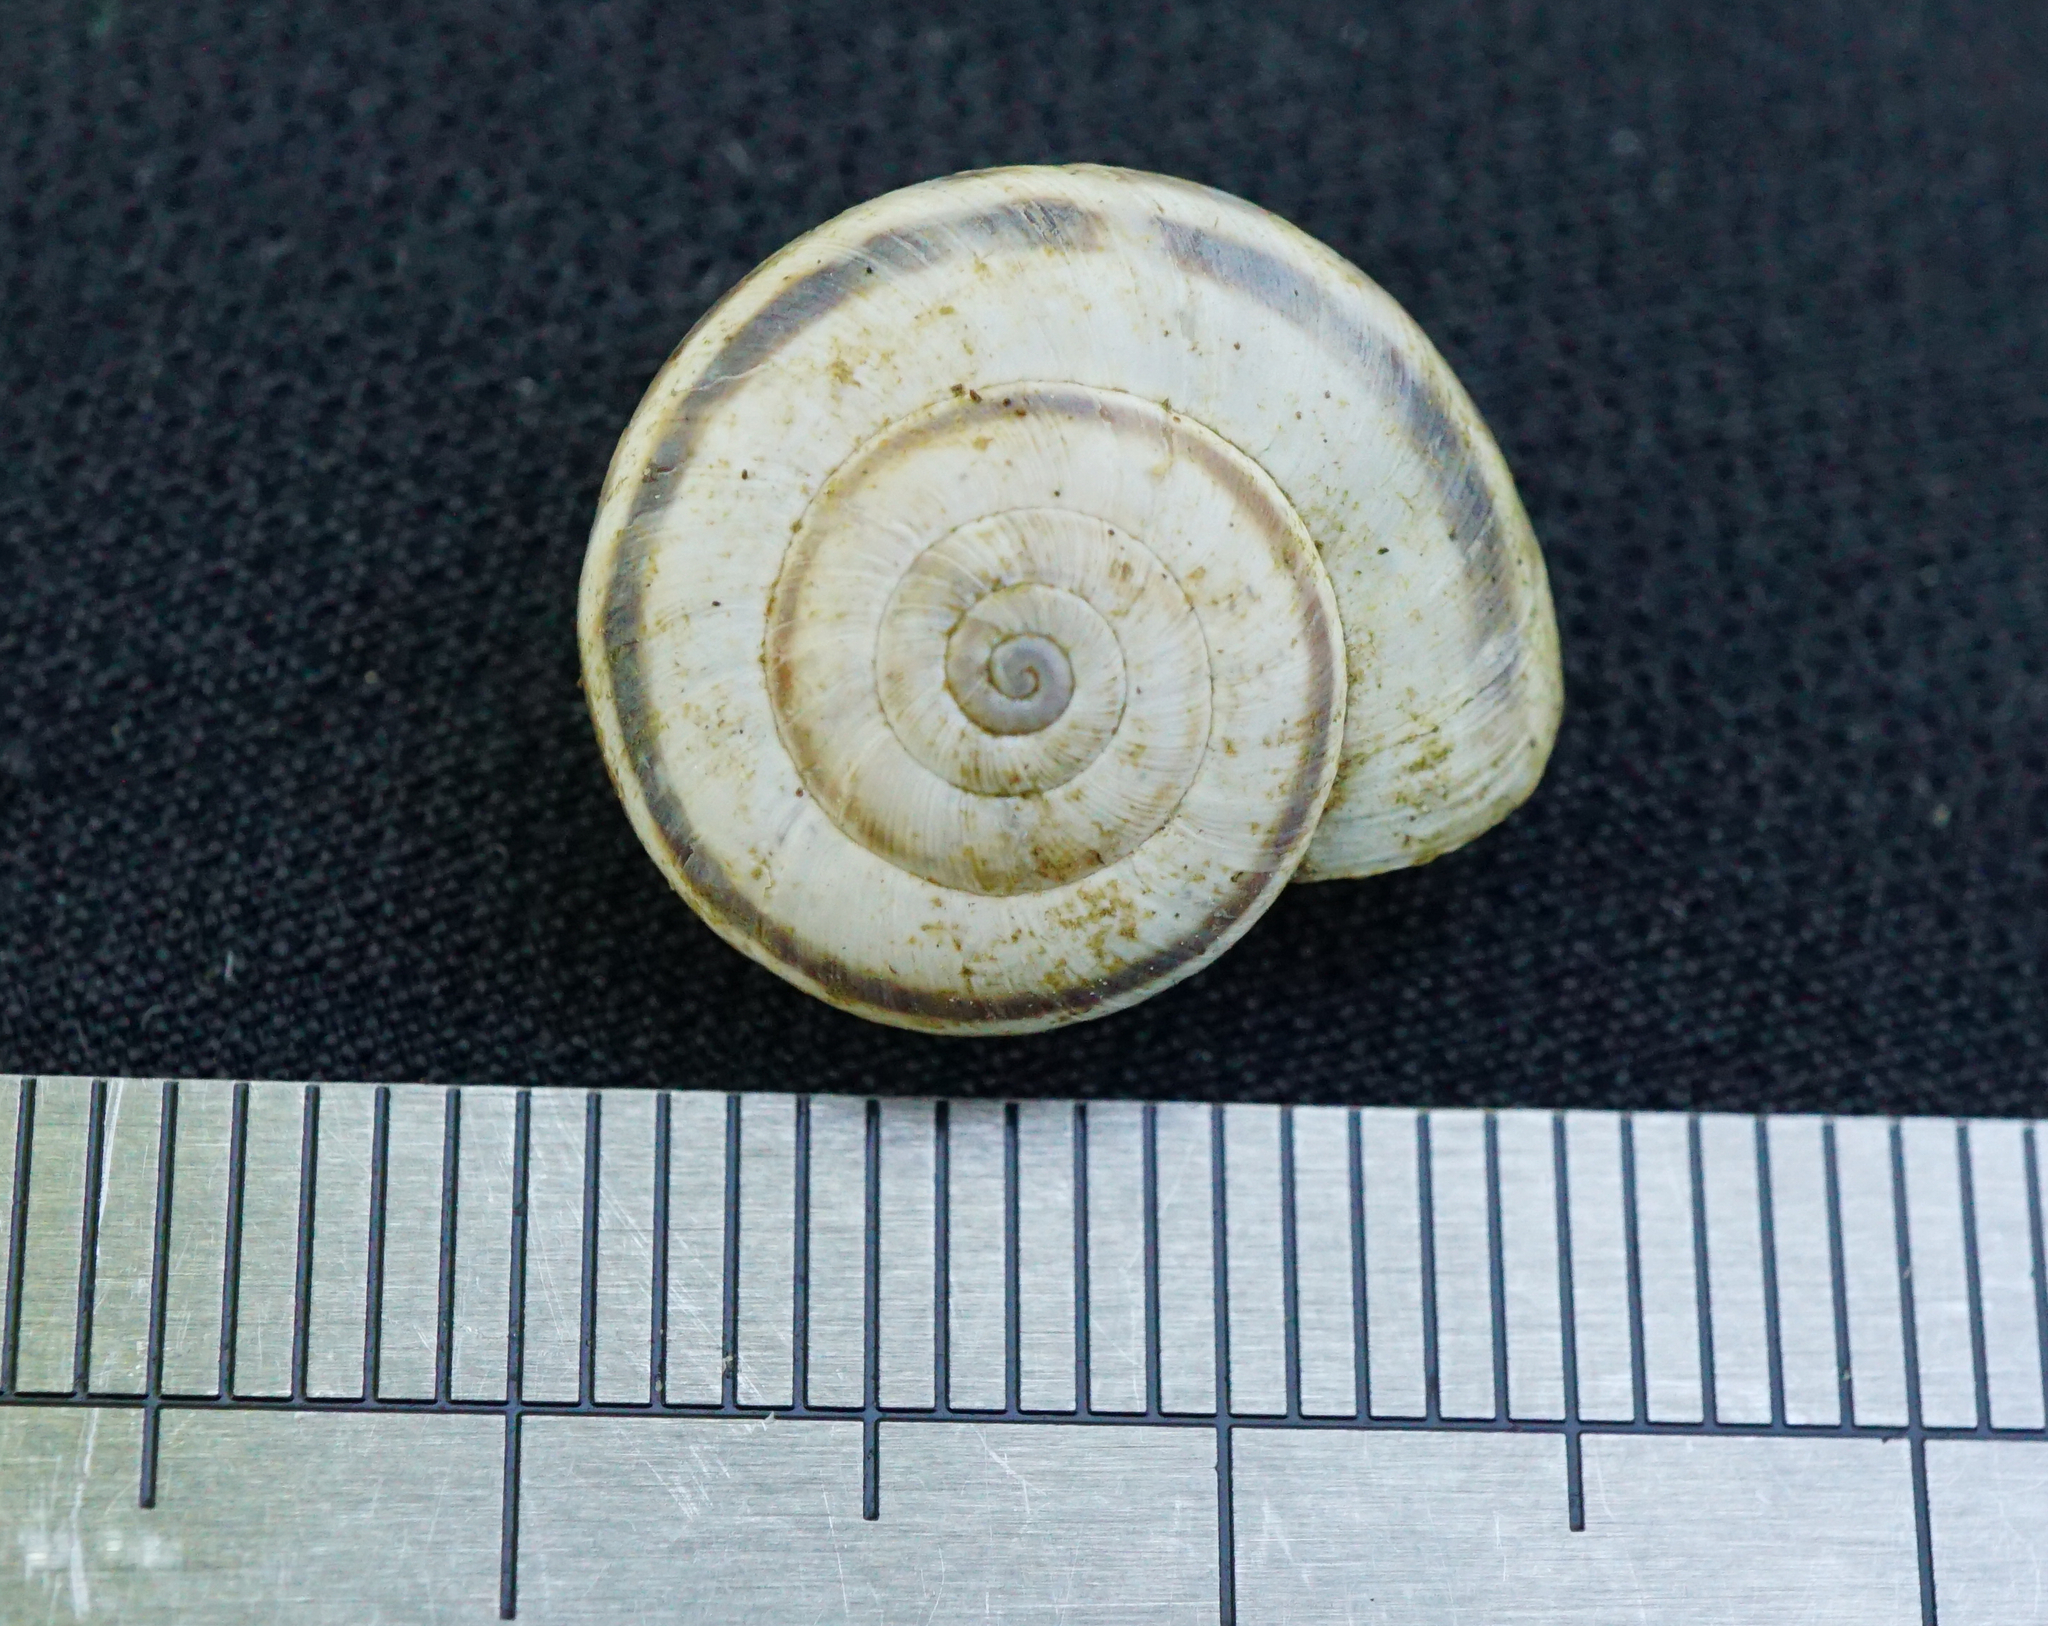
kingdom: Animalia
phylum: Mollusca
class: Gastropoda
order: Stylommatophora
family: Geomitridae
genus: Xerolenta
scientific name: Xerolenta obvia
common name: White heath snail
